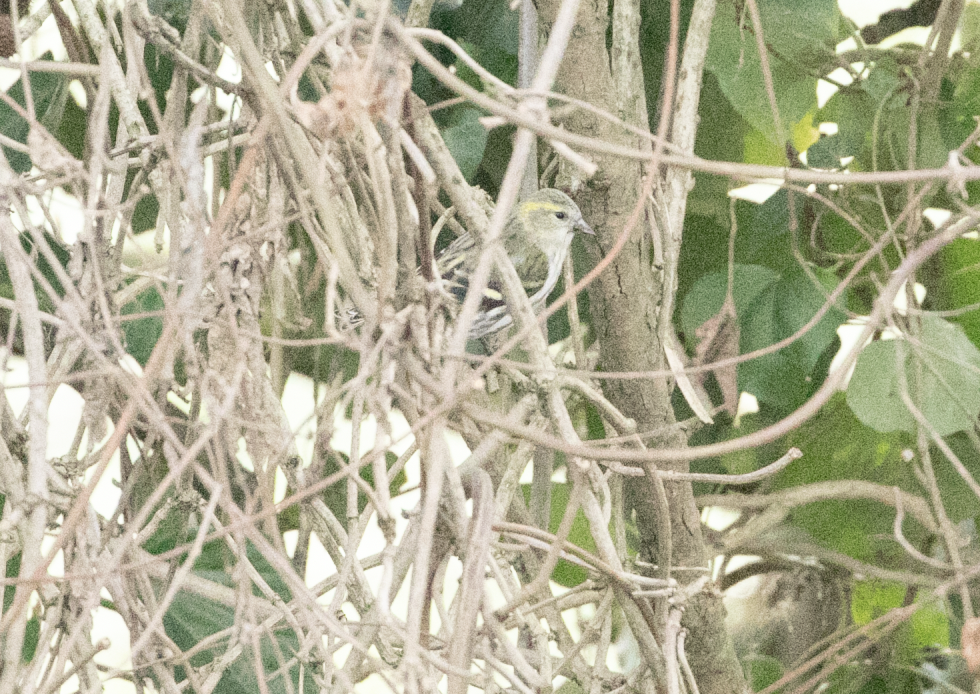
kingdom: Animalia
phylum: Chordata
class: Aves
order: Passeriformes
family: Fringillidae
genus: Spinus
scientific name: Spinus spinus
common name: Eurasian siskin
